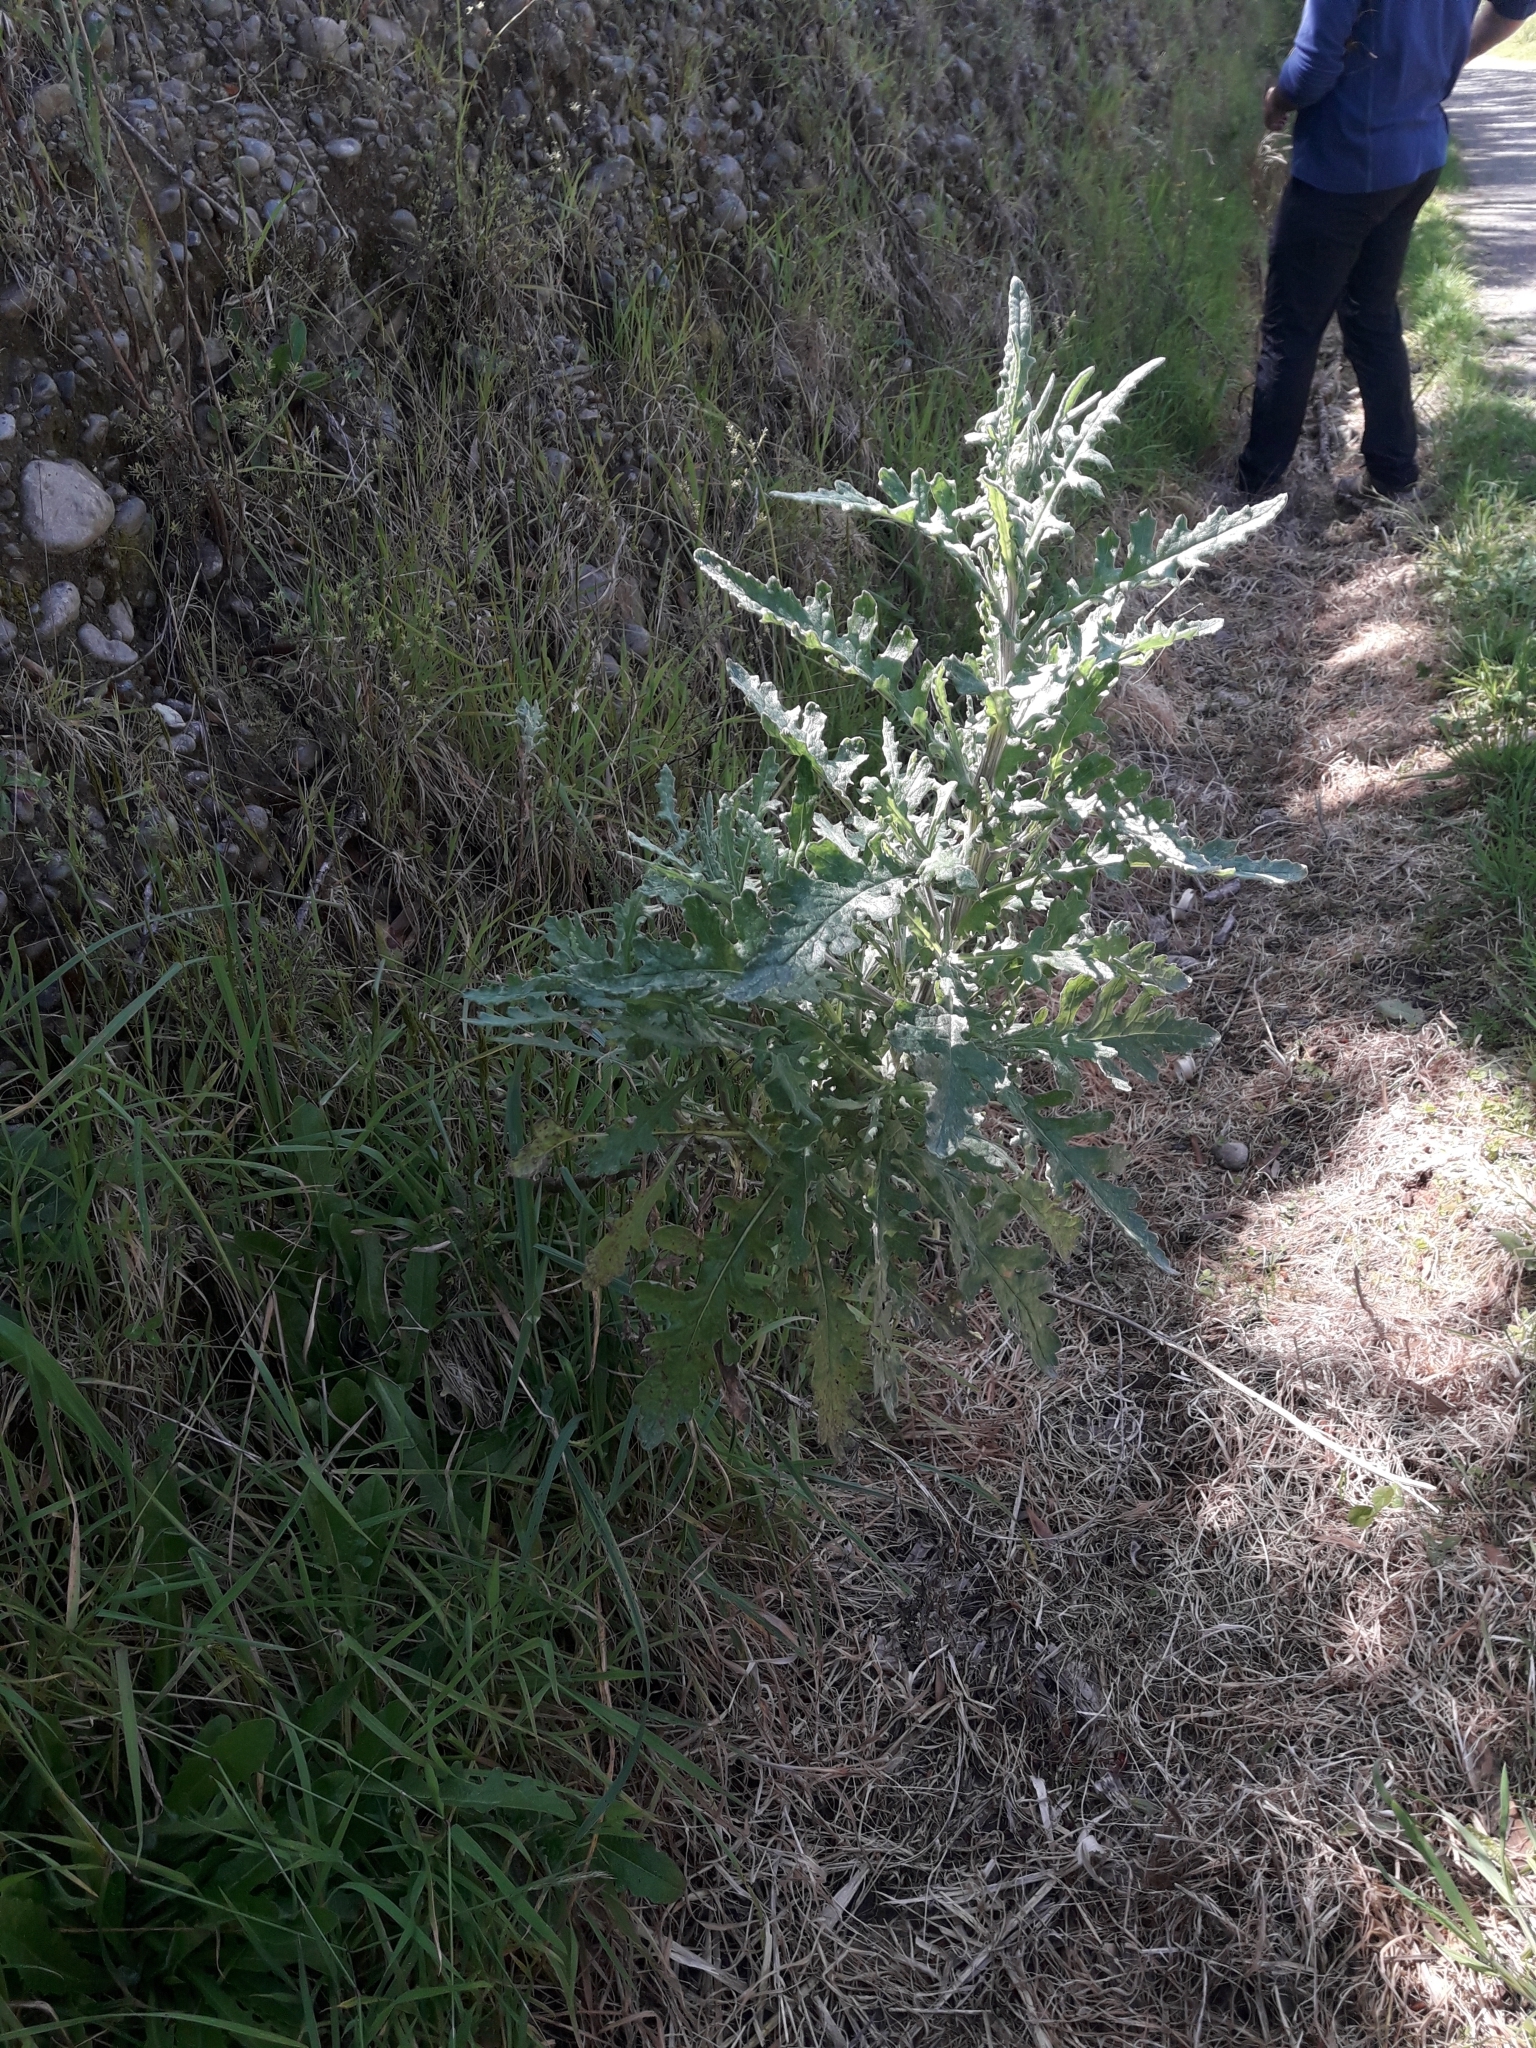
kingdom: Plantae
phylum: Tracheophyta
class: Magnoliopsida
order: Asterales
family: Asteraceae
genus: Senecio
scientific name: Senecio glomeratus
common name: Cutleaf burnweed
